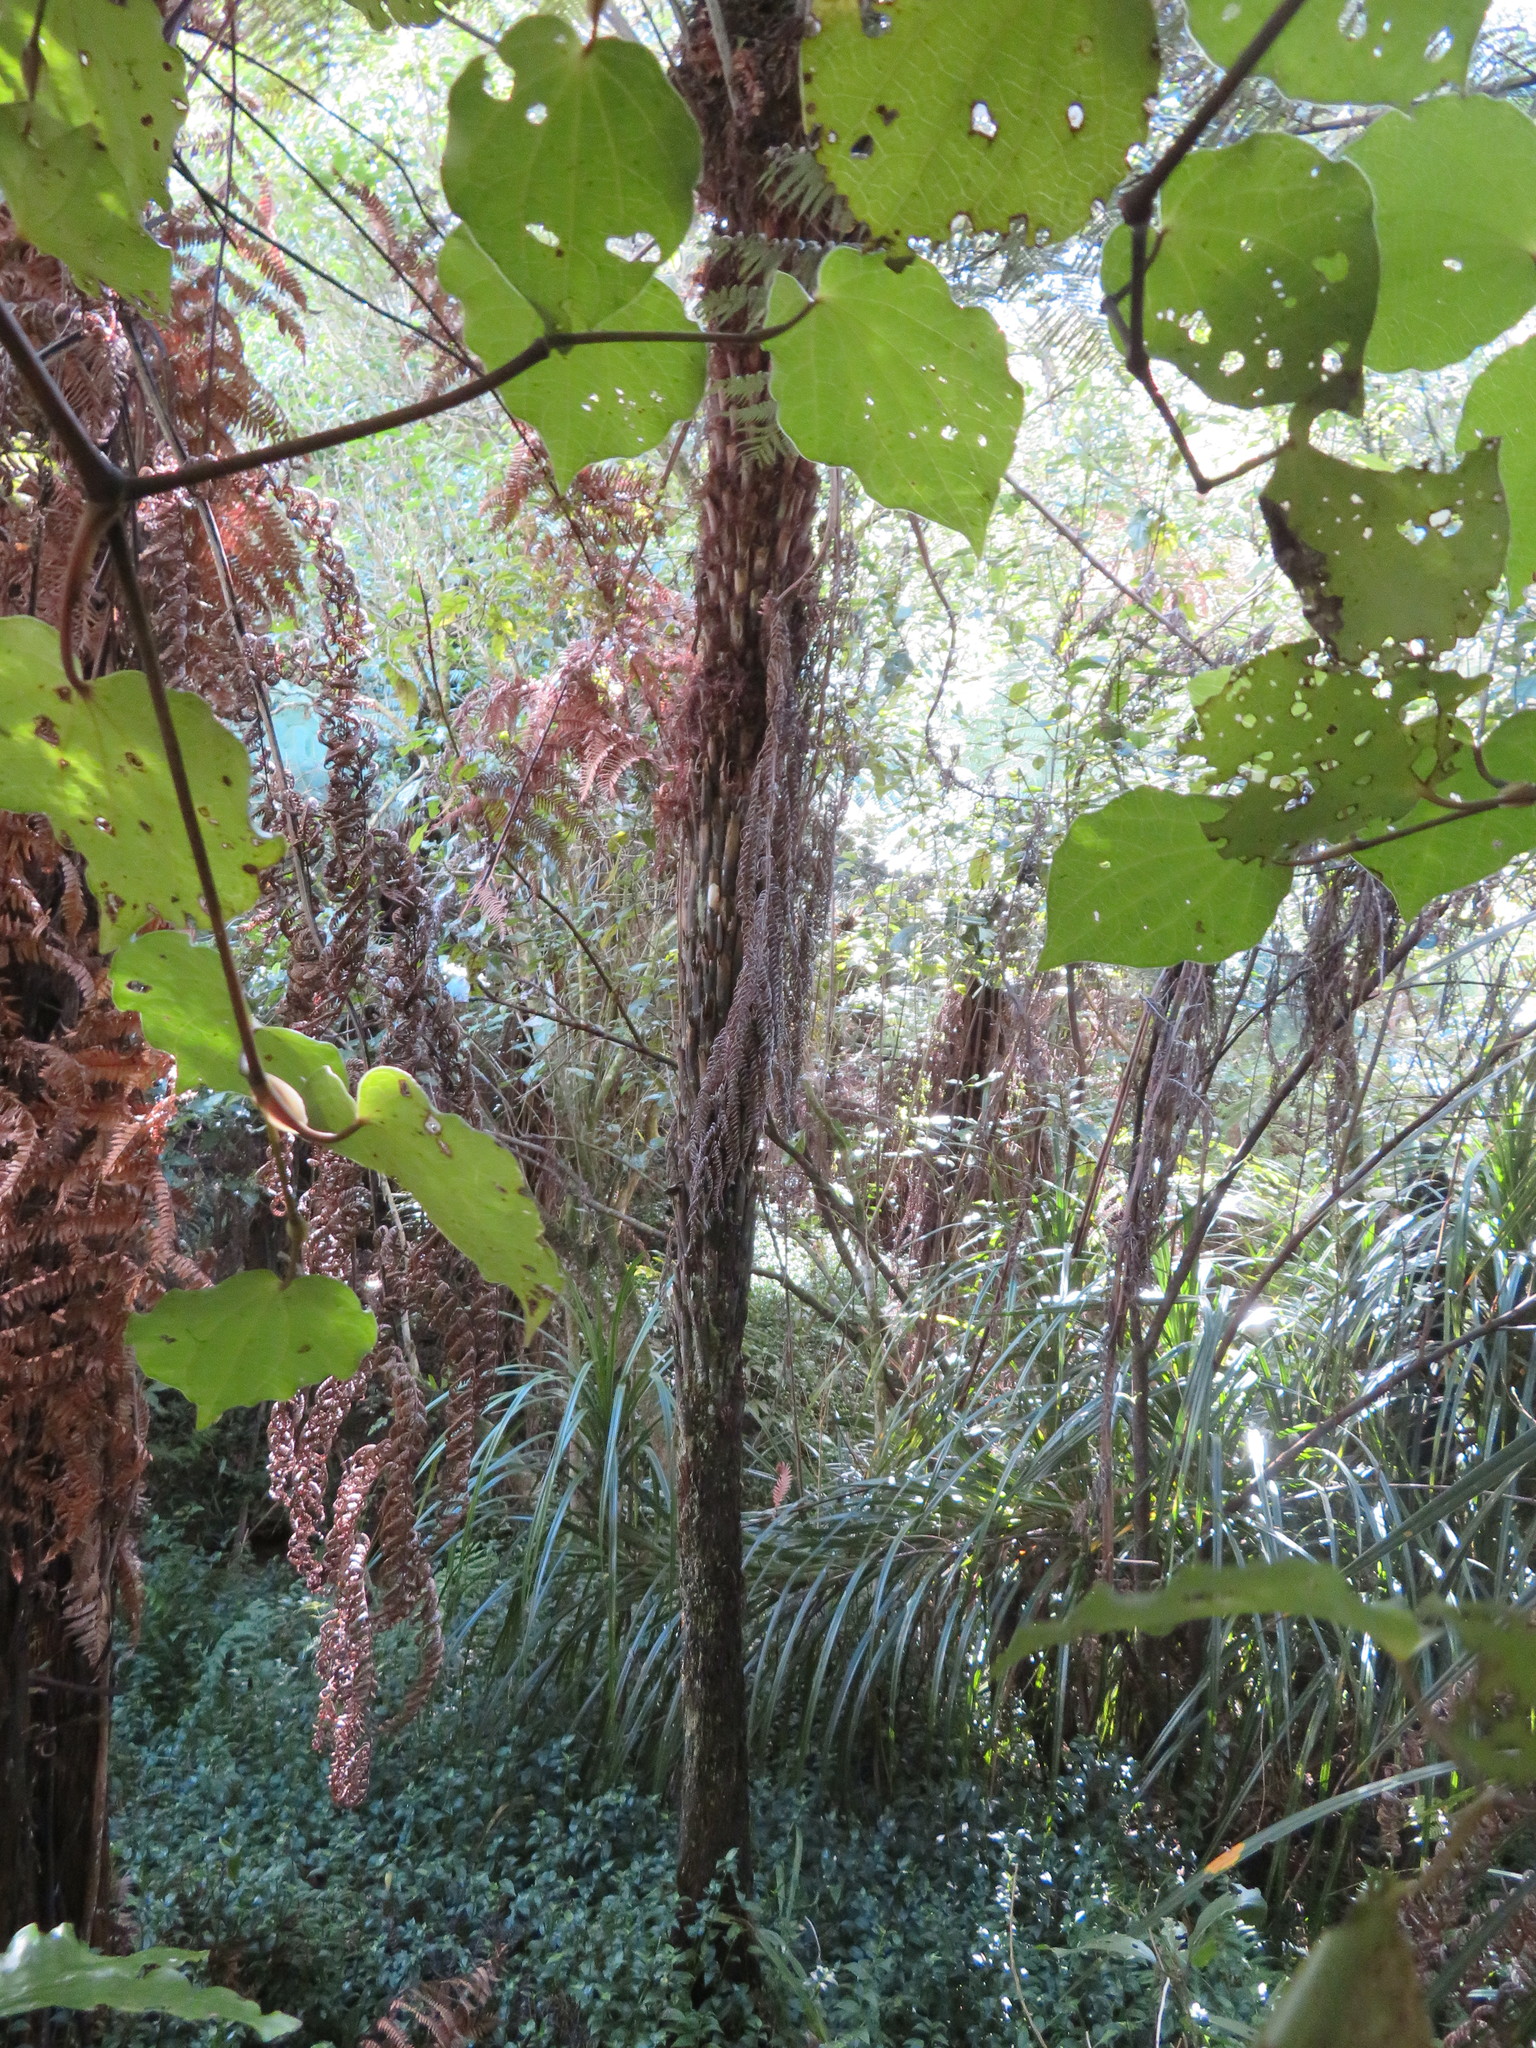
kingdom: Plantae
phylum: Tracheophyta
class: Magnoliopsida
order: Piperales
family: Piperaceae
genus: Macropiper
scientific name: Macropiper excelsum
